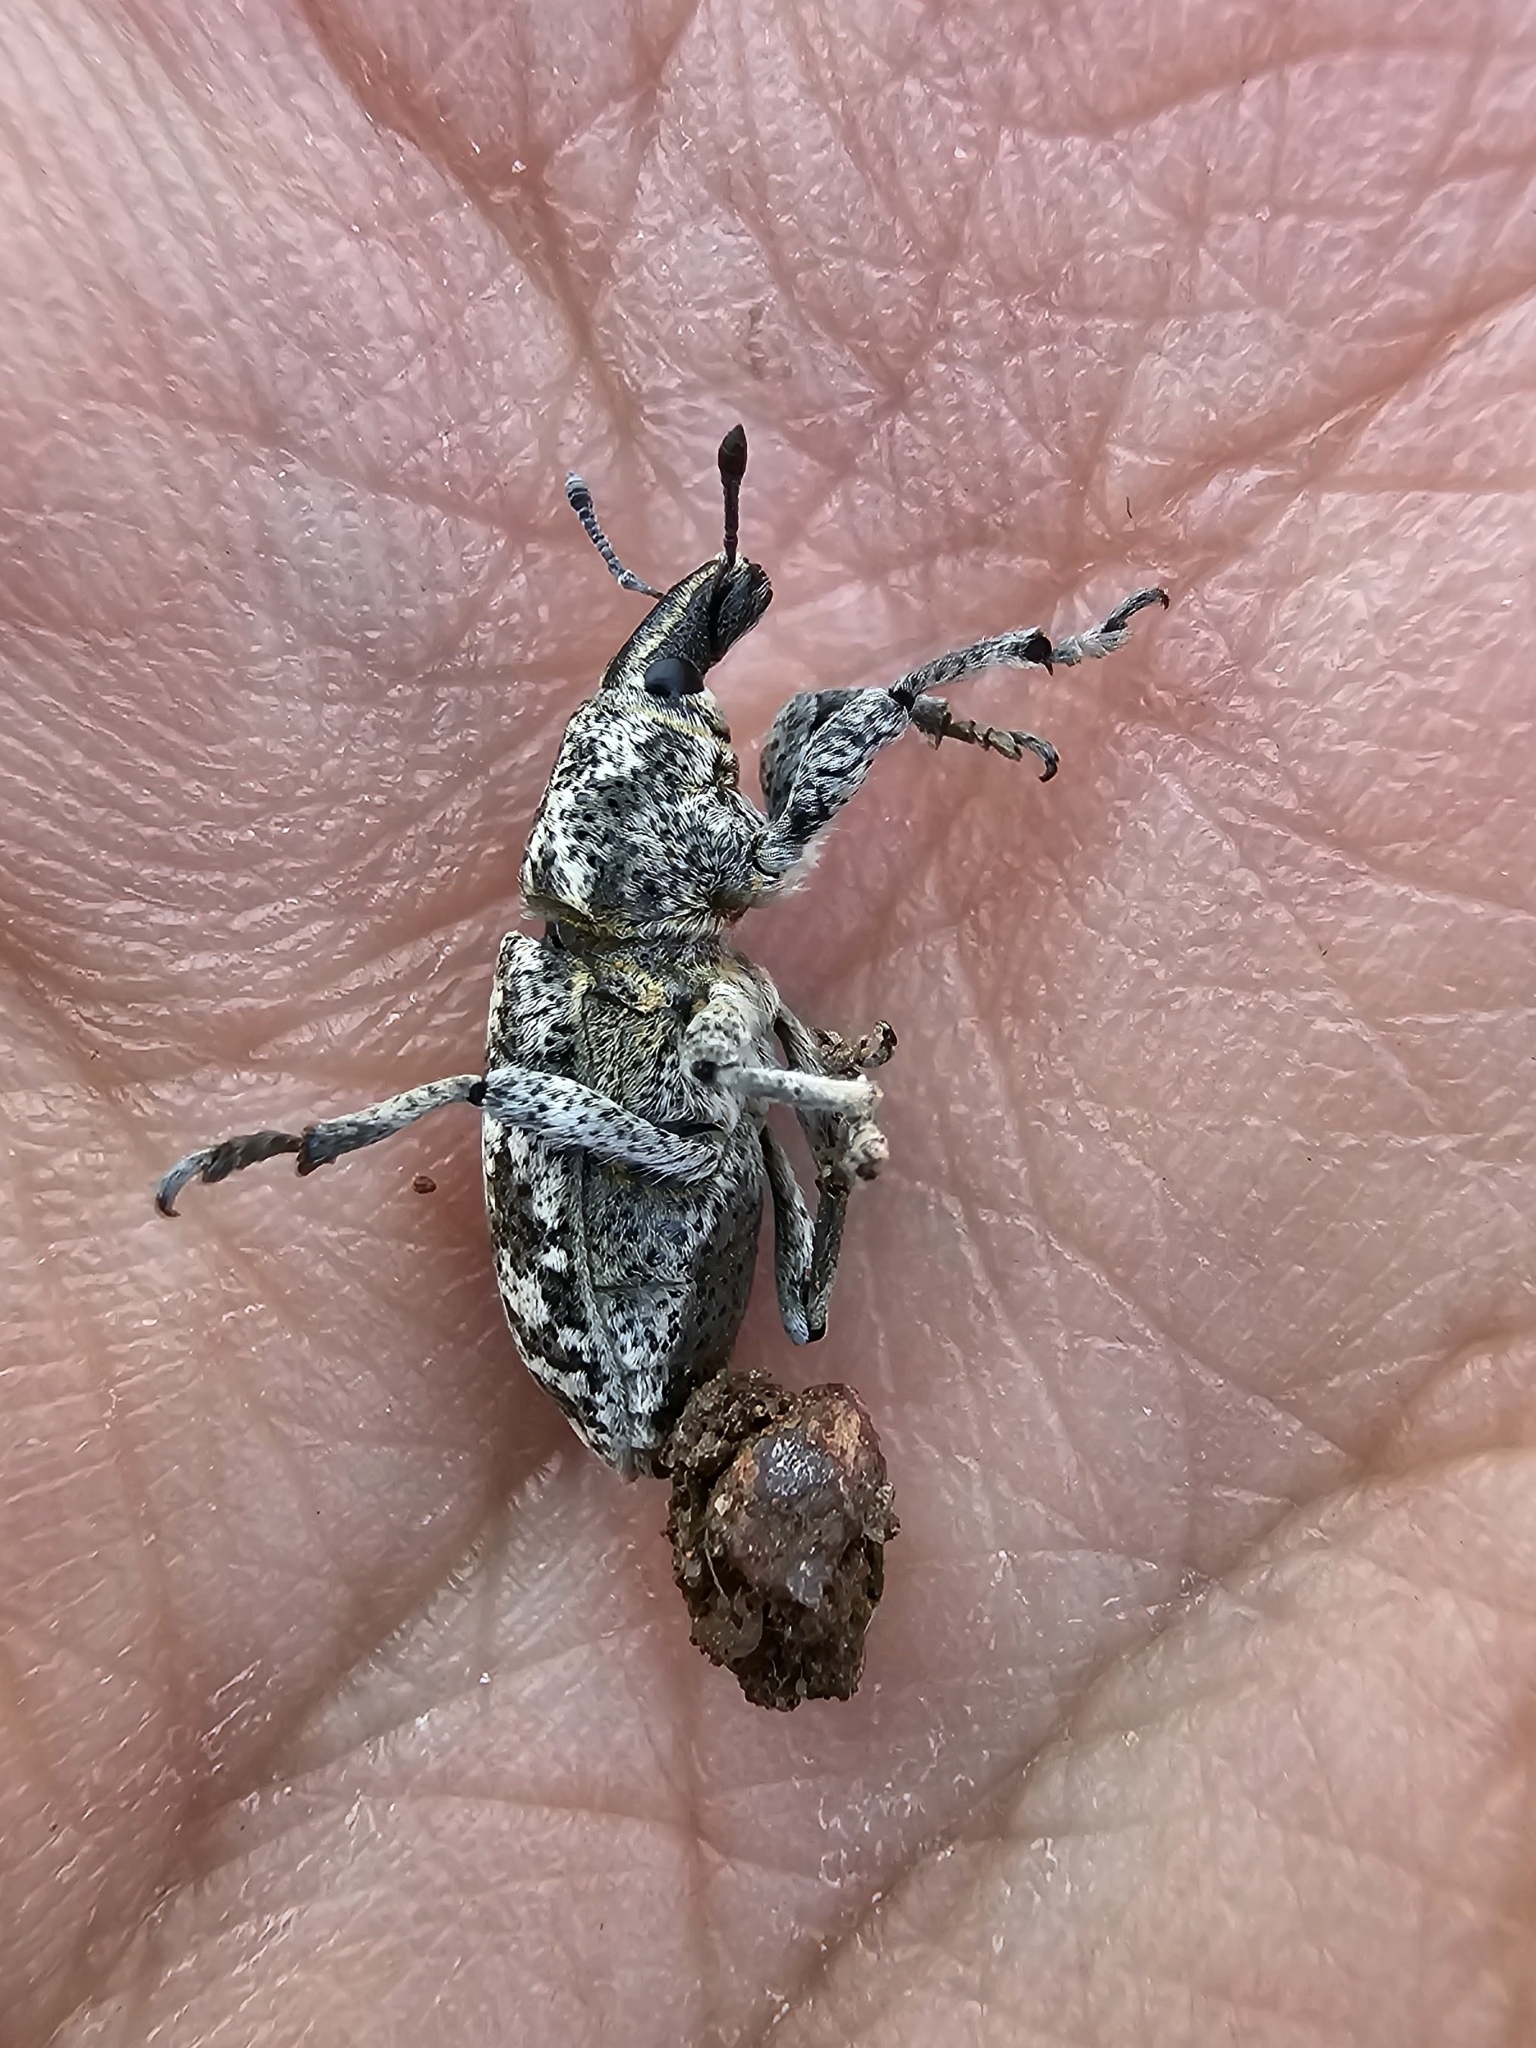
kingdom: Animalia
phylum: Arthropoda
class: Insecta
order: Coleoptera
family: Curculionidae
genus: Cyphocleonus
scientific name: Cyphocleonus dealbatus
